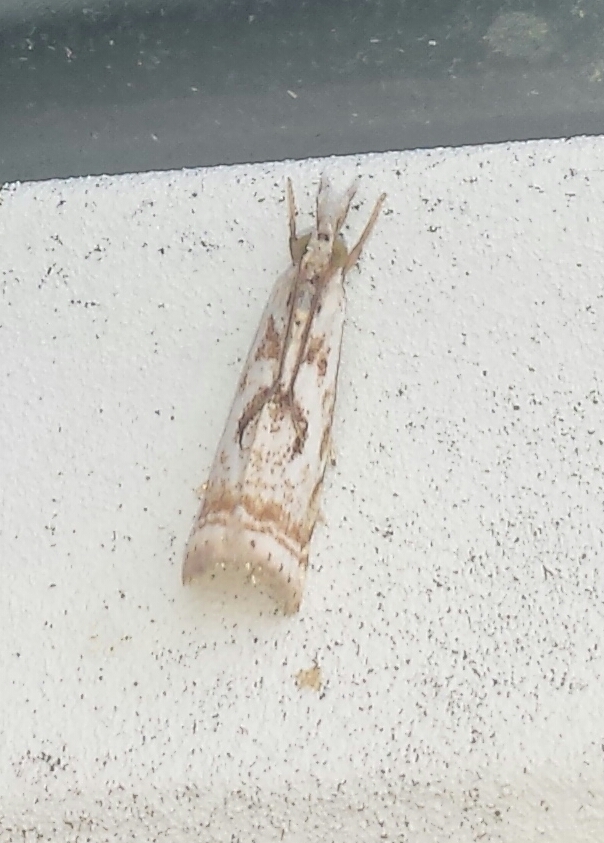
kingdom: Animalia
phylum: Arthropoda
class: Insecta
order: Lepidoptera
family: Crambidae
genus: Microcrambus
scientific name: Microcrambus elegans
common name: Elegant grass-veneer
